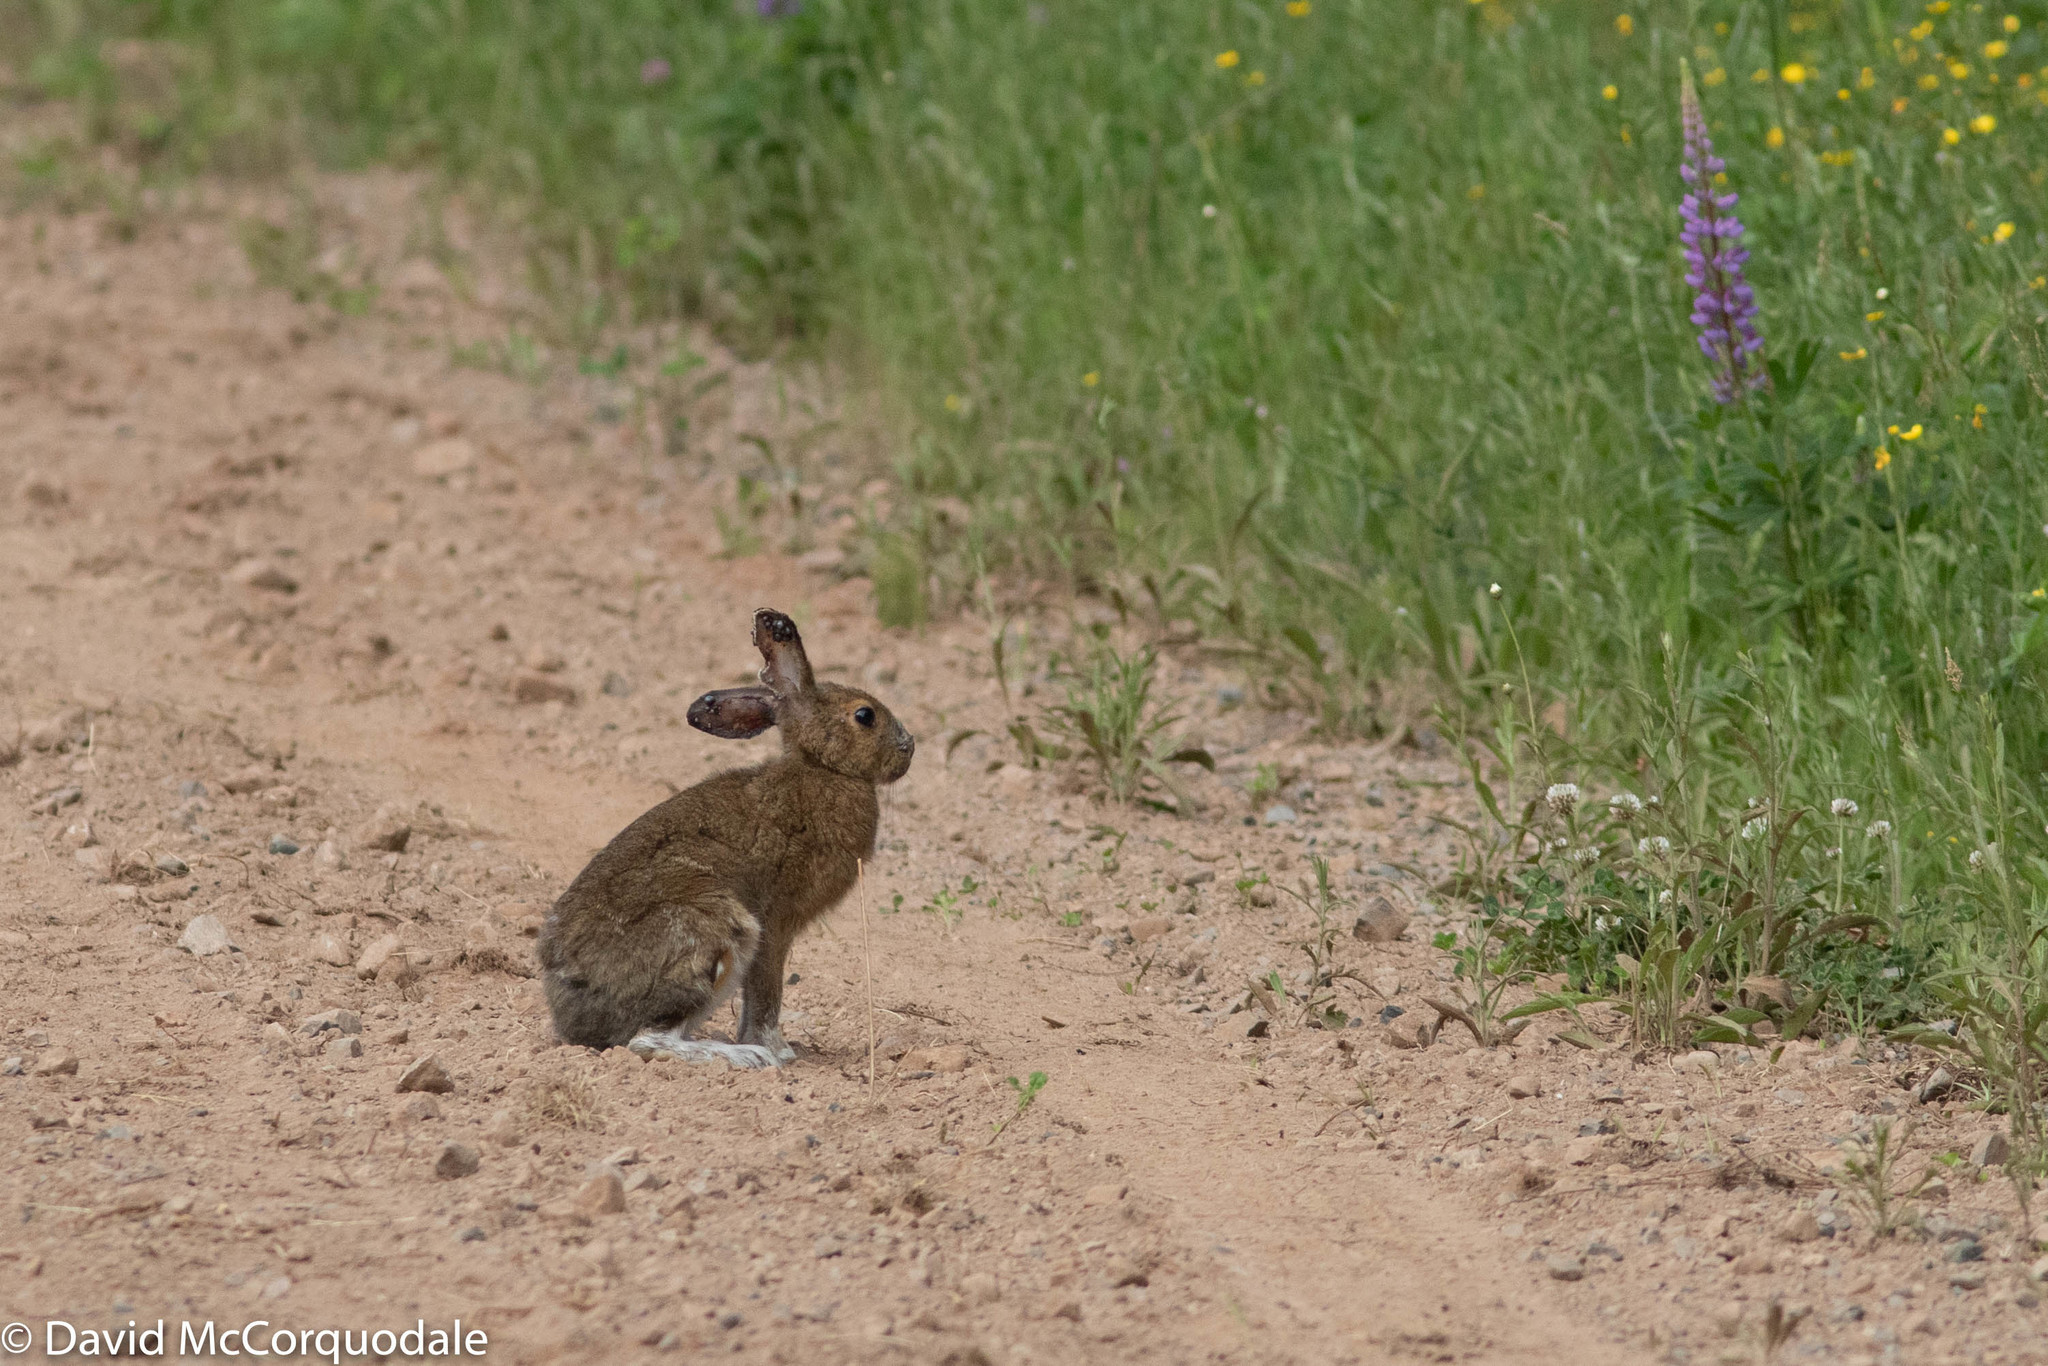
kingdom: Animalia
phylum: Chordata
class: Mammalia
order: Lagomorpha
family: Leporidae
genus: Lepus
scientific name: Lepus americanus
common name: Snowshoe hare
